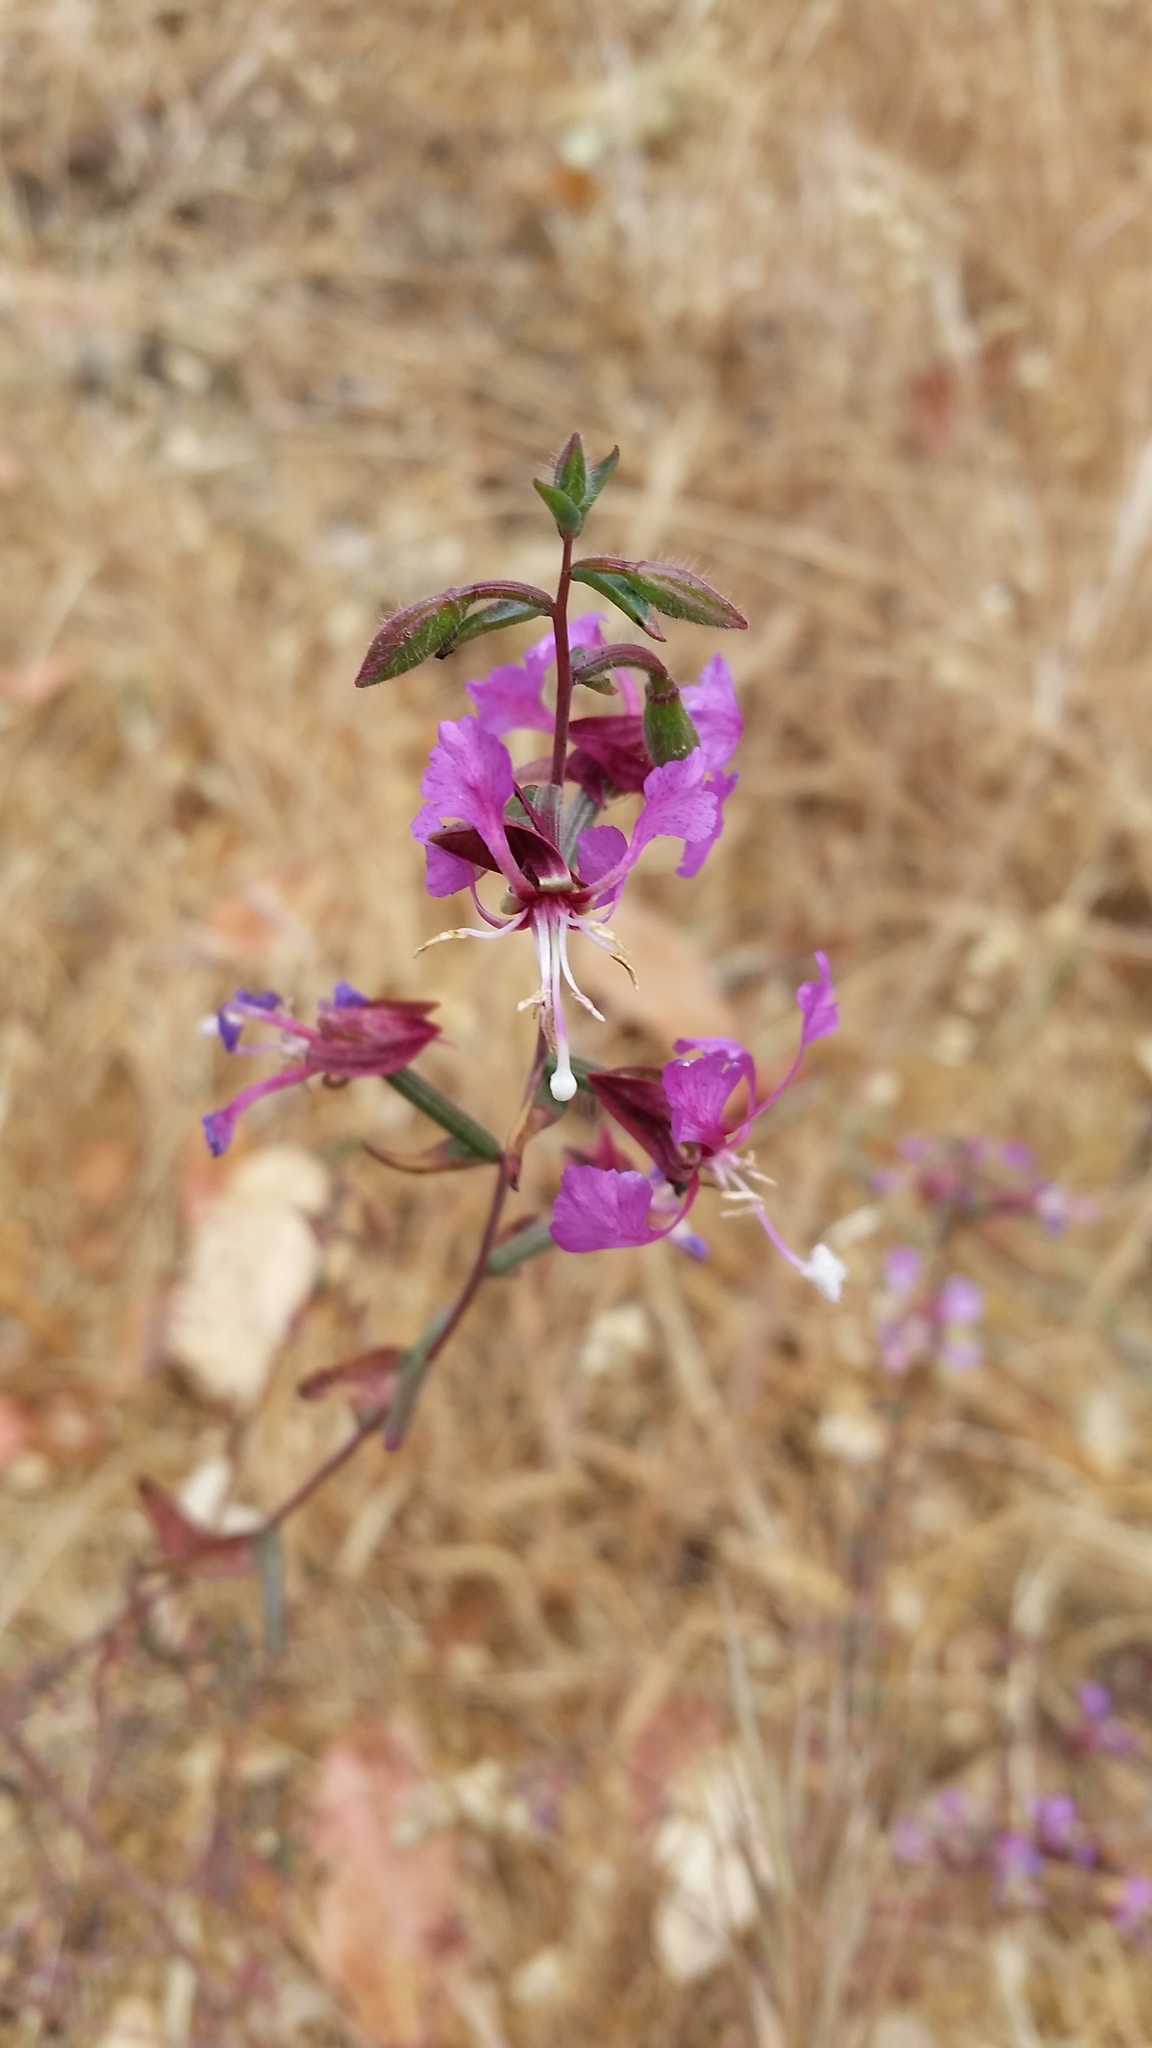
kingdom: Plantae
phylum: Tracheophyta
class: Magnoliopsida
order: Myrtales
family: Onagraceae
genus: Clarkia
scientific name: Clarkia unguiculata
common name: Clarkia
